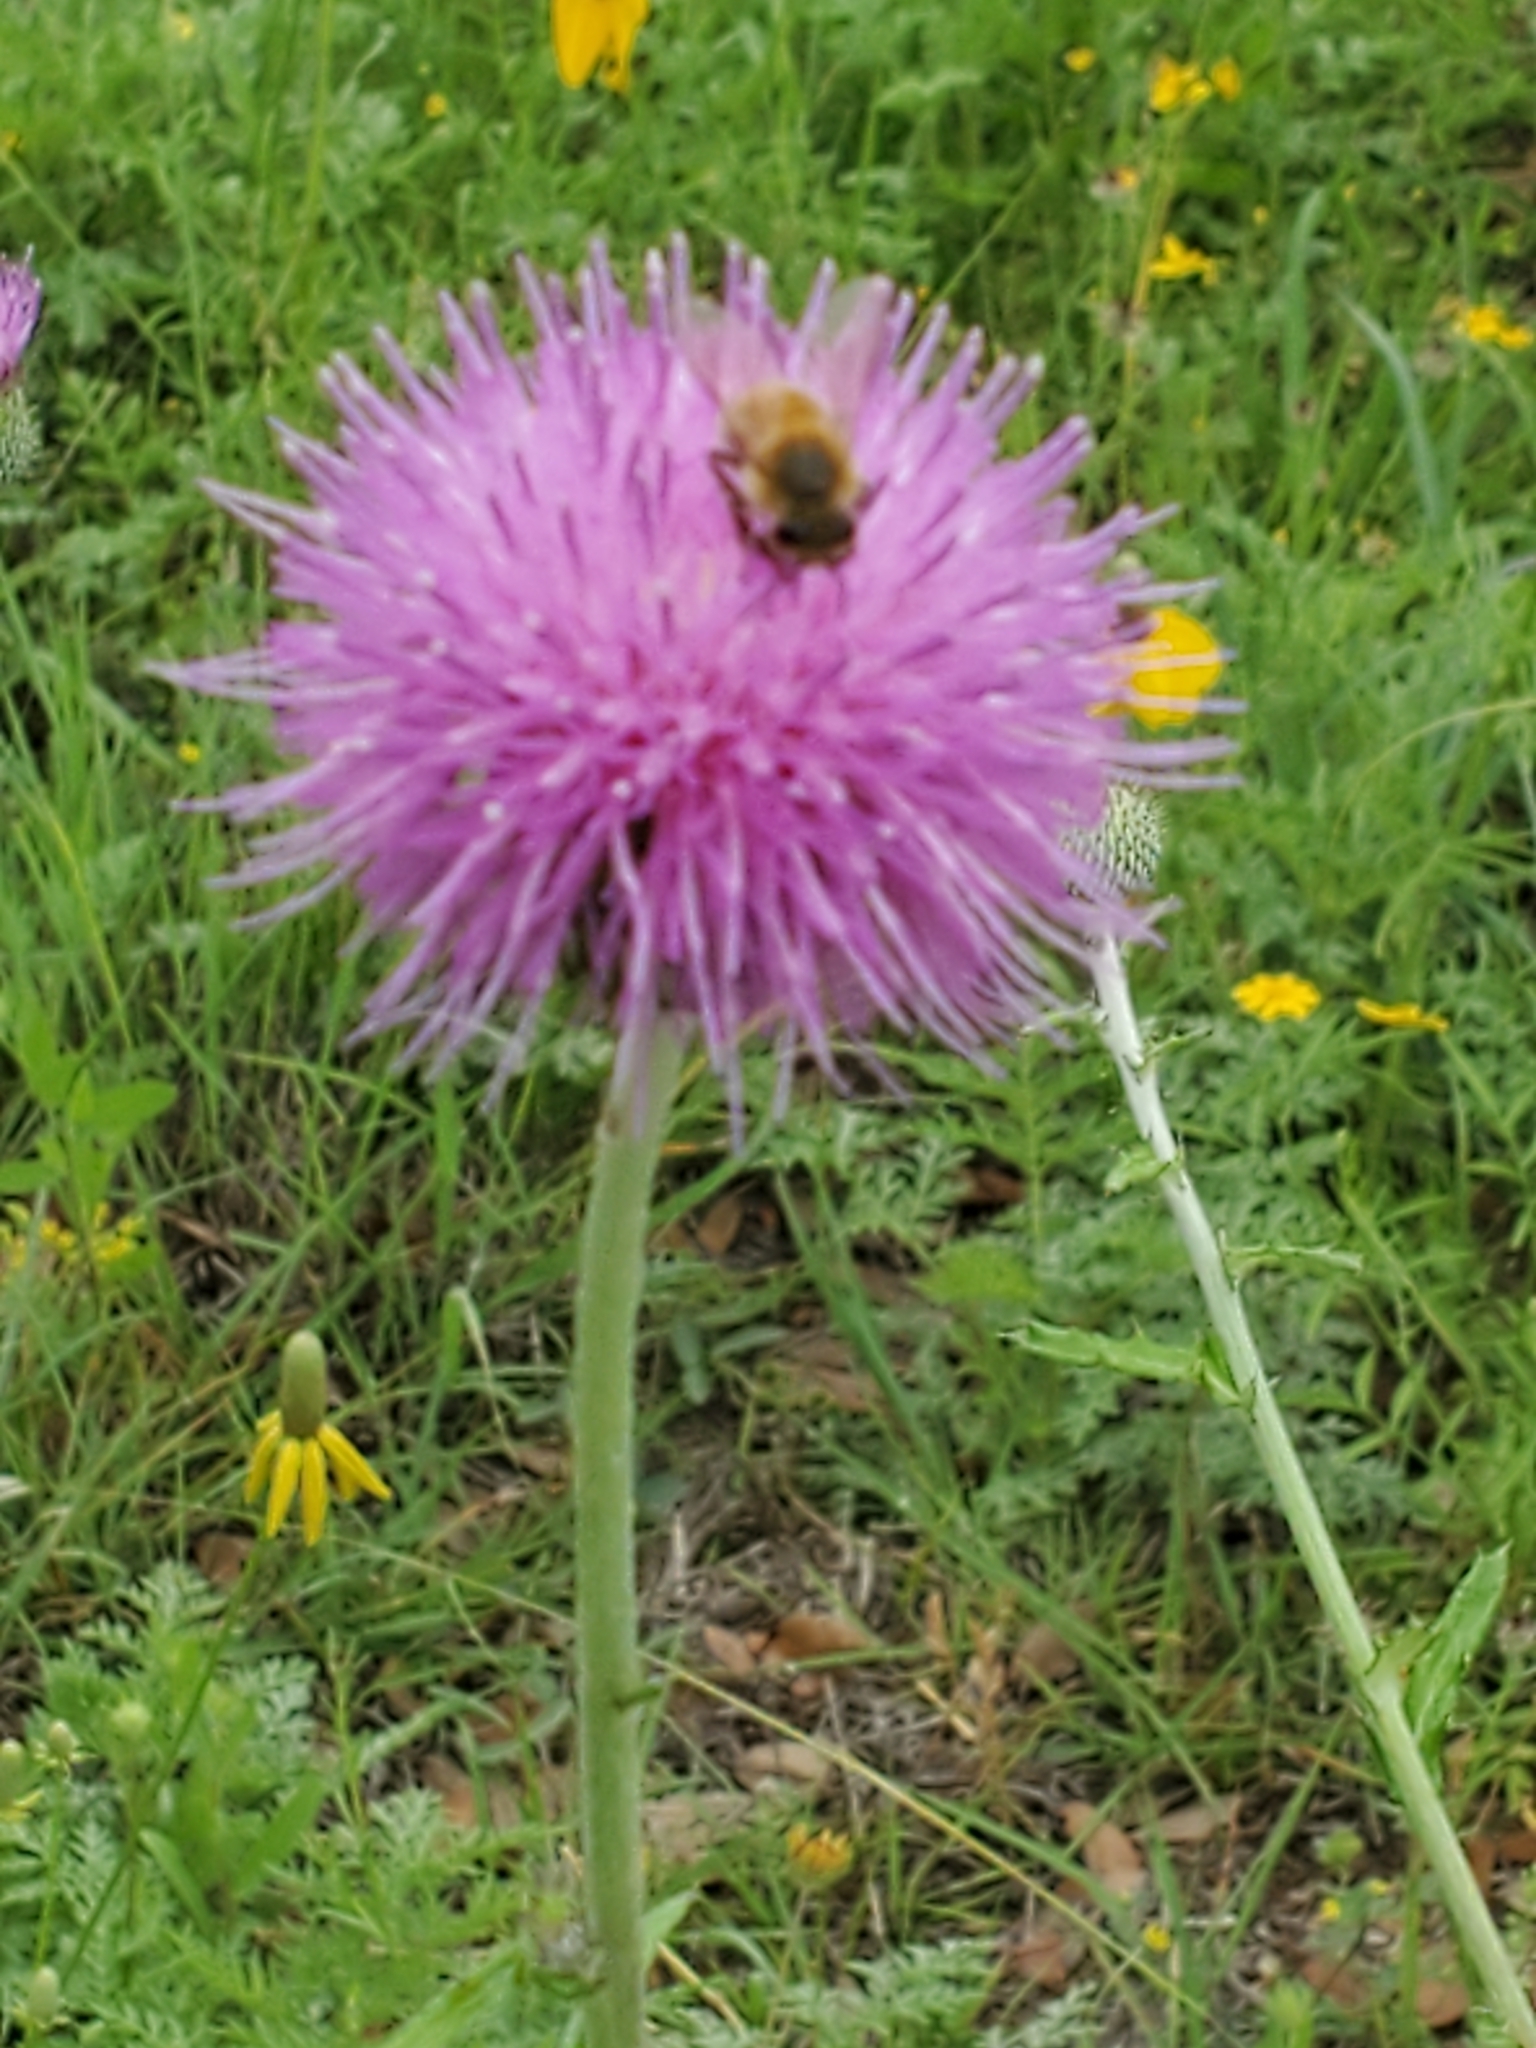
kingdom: Plantae
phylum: Tracheophyta
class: Magnoliopsida
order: Asterales
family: Asteraceae
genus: Cirsium
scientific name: Cirsium texanum
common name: Texas purple thistle
